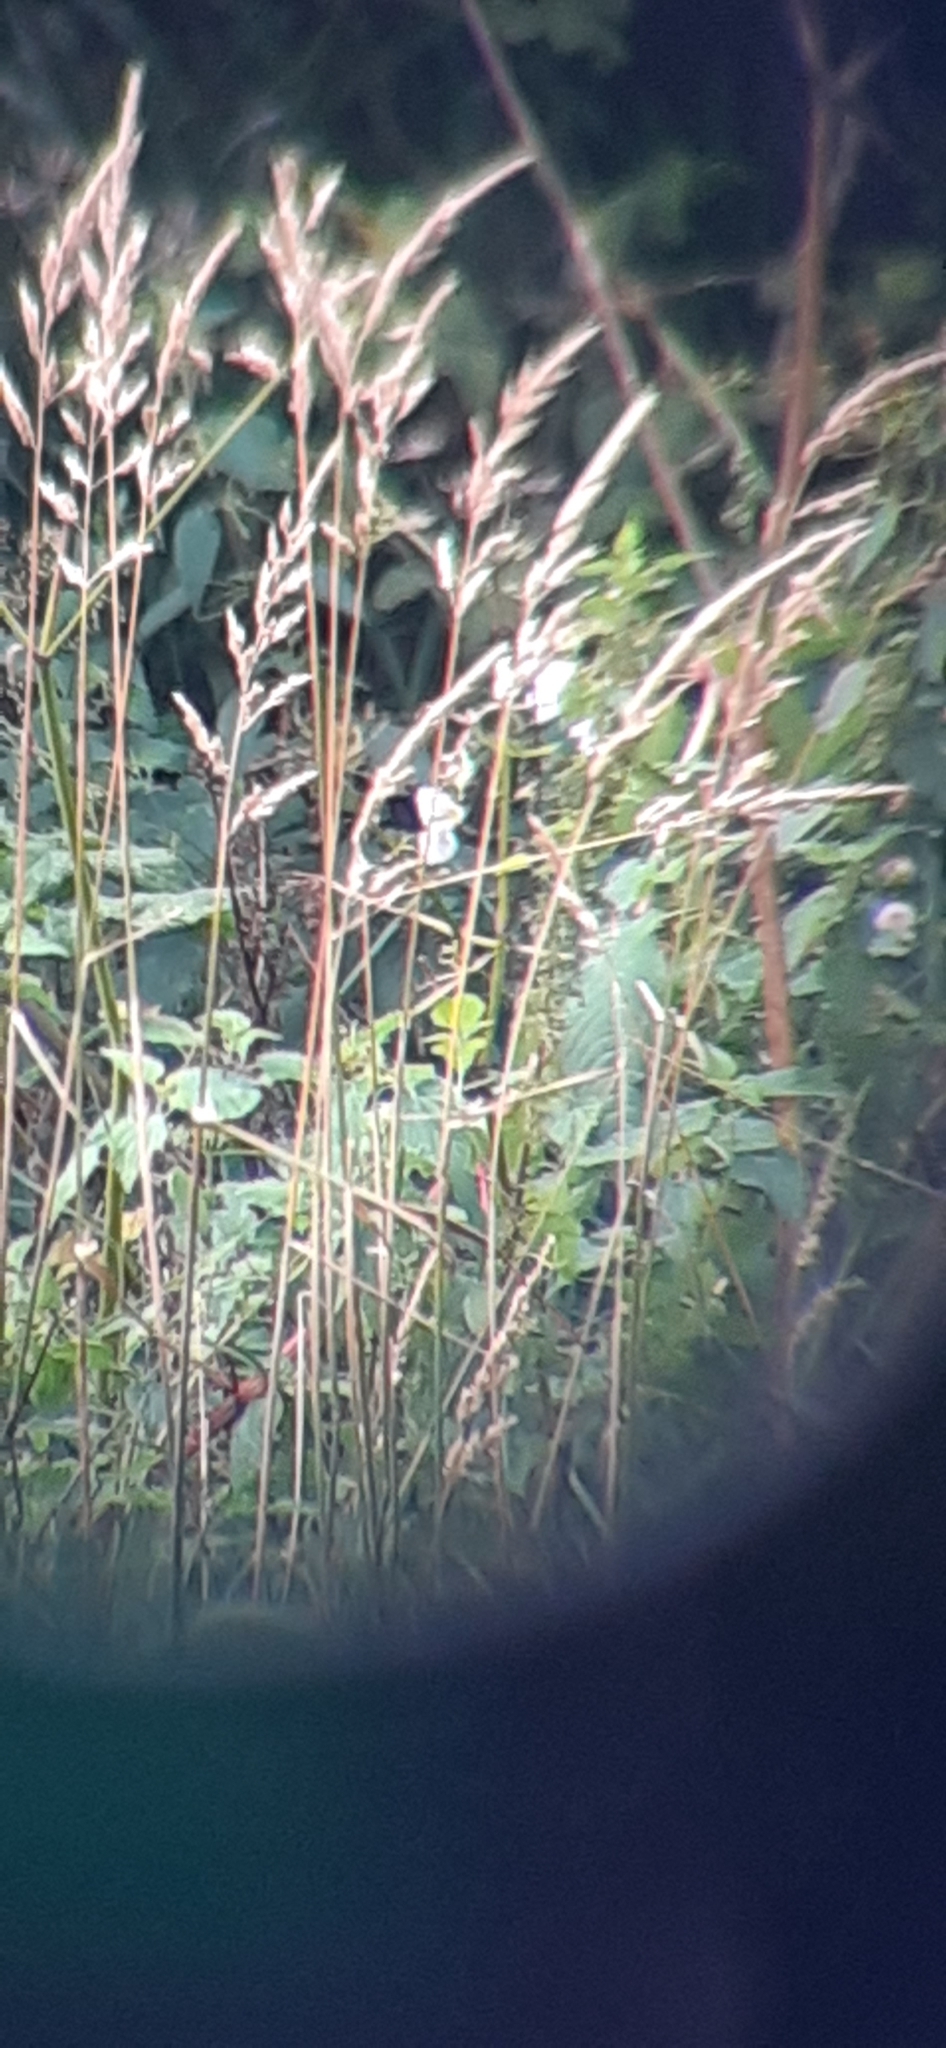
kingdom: Plantae
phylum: Tracheophyta
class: Magnoliopsida
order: Ericales
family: Balsaminaceae
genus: Impatiens
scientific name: Impatiens glandulifera
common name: Himalayan balsam
